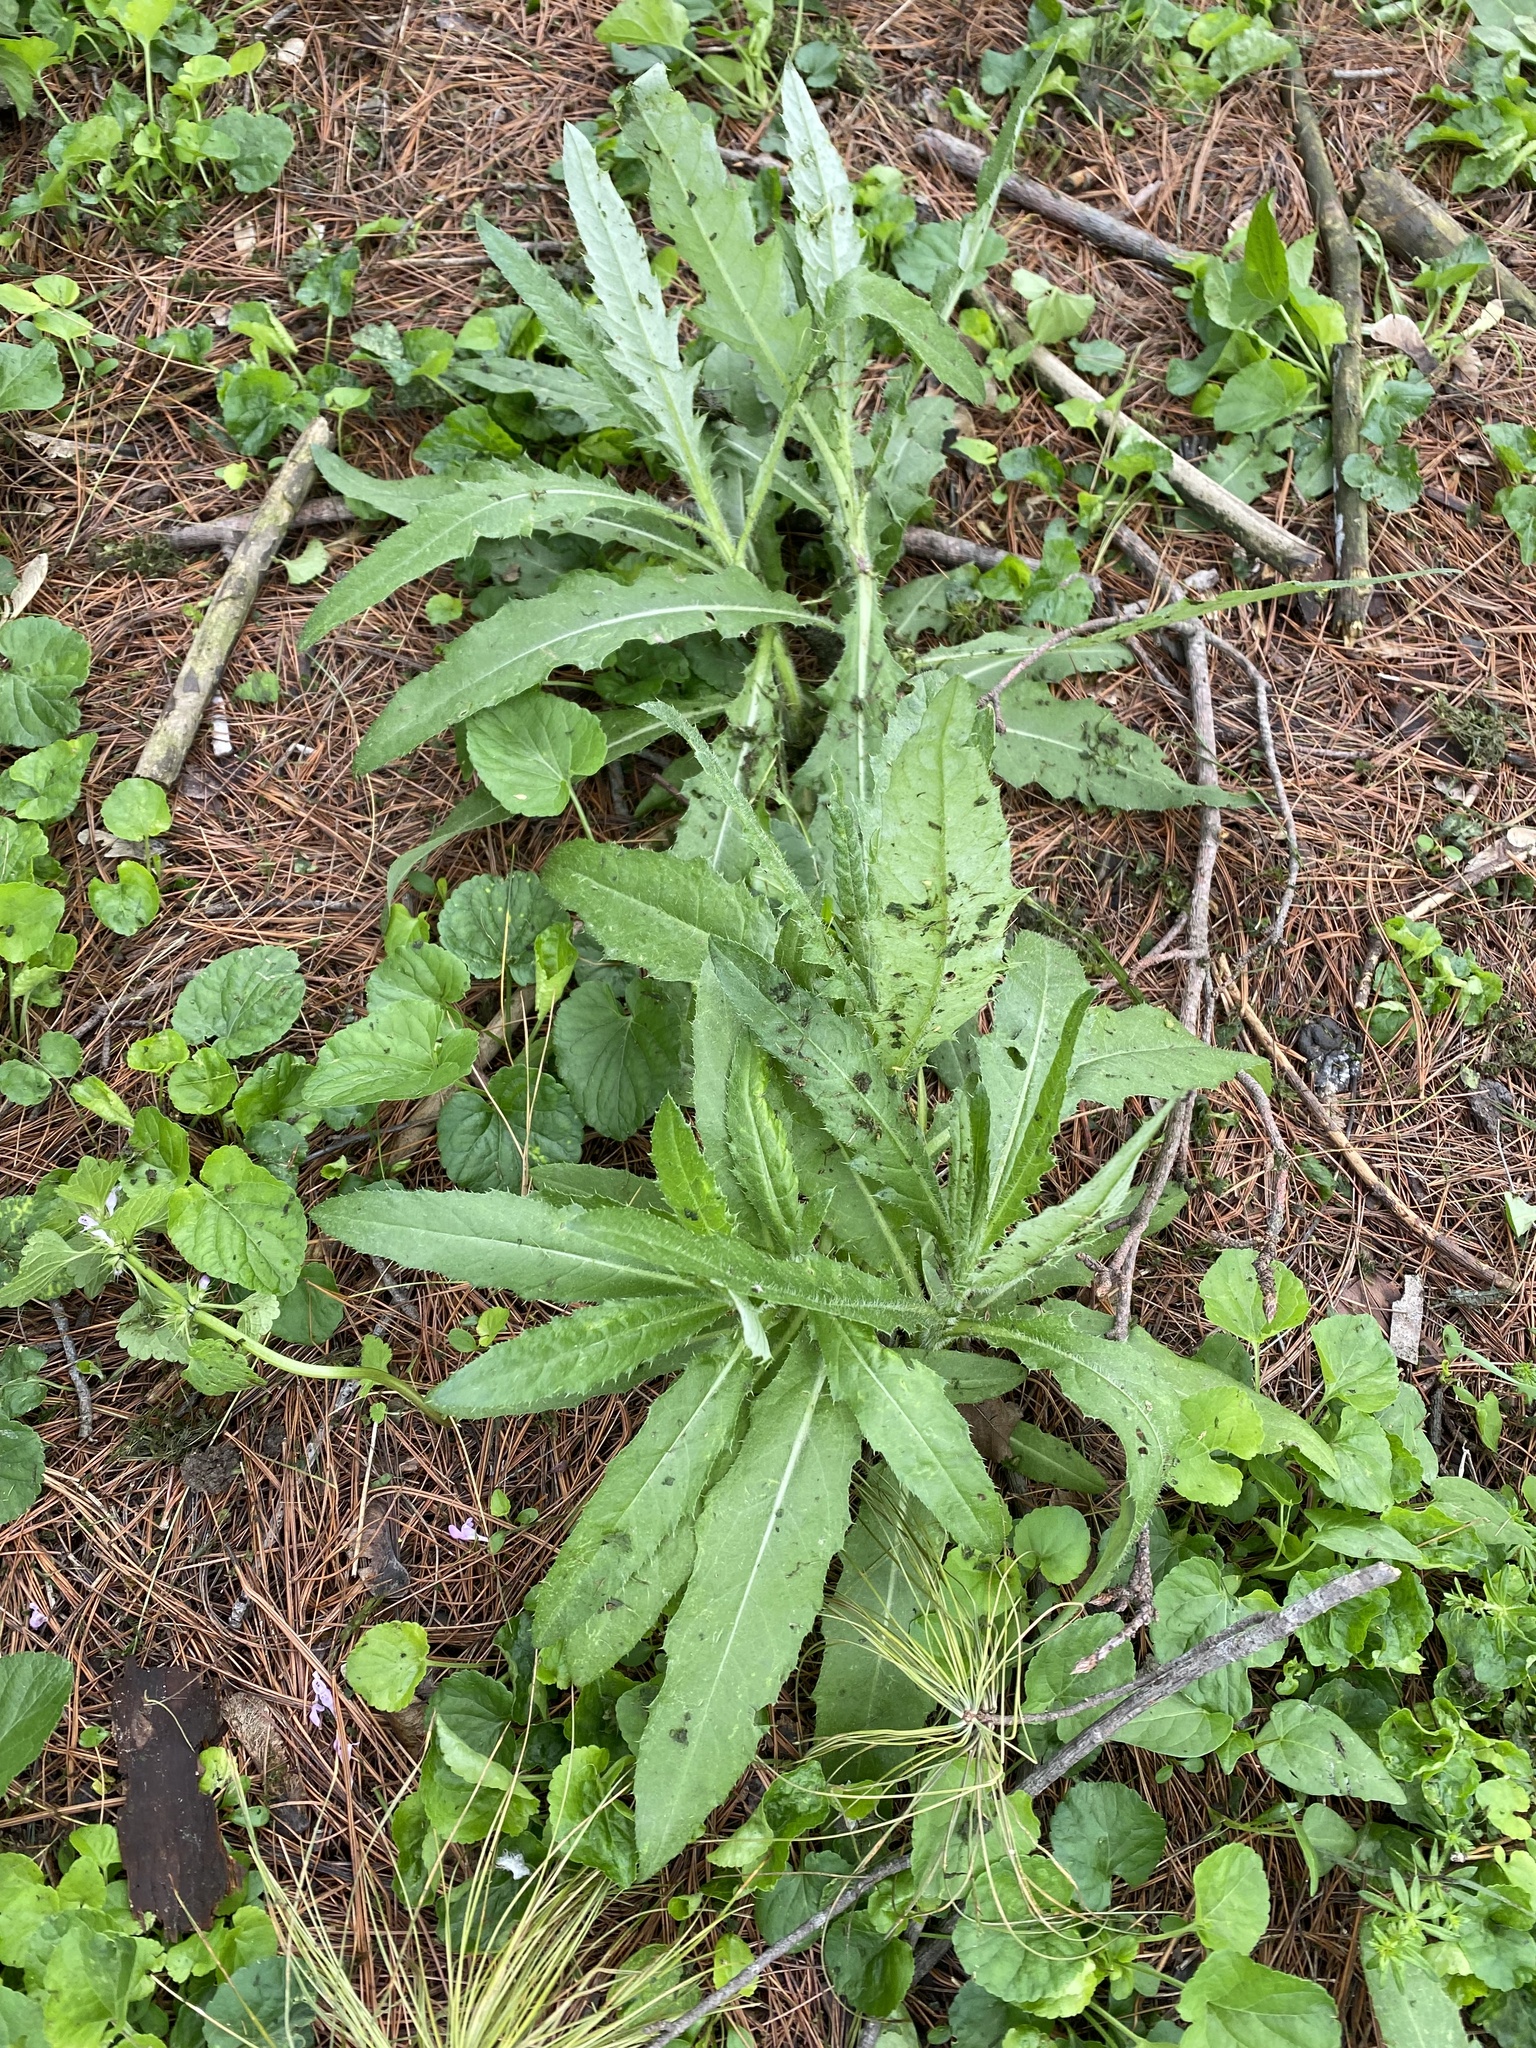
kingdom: Plantae
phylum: Tracheophyta
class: Magnoliopsida
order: Asterales
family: Asteraceae
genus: Cirsium
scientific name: Cirsium arvense
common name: Creeping thistle
